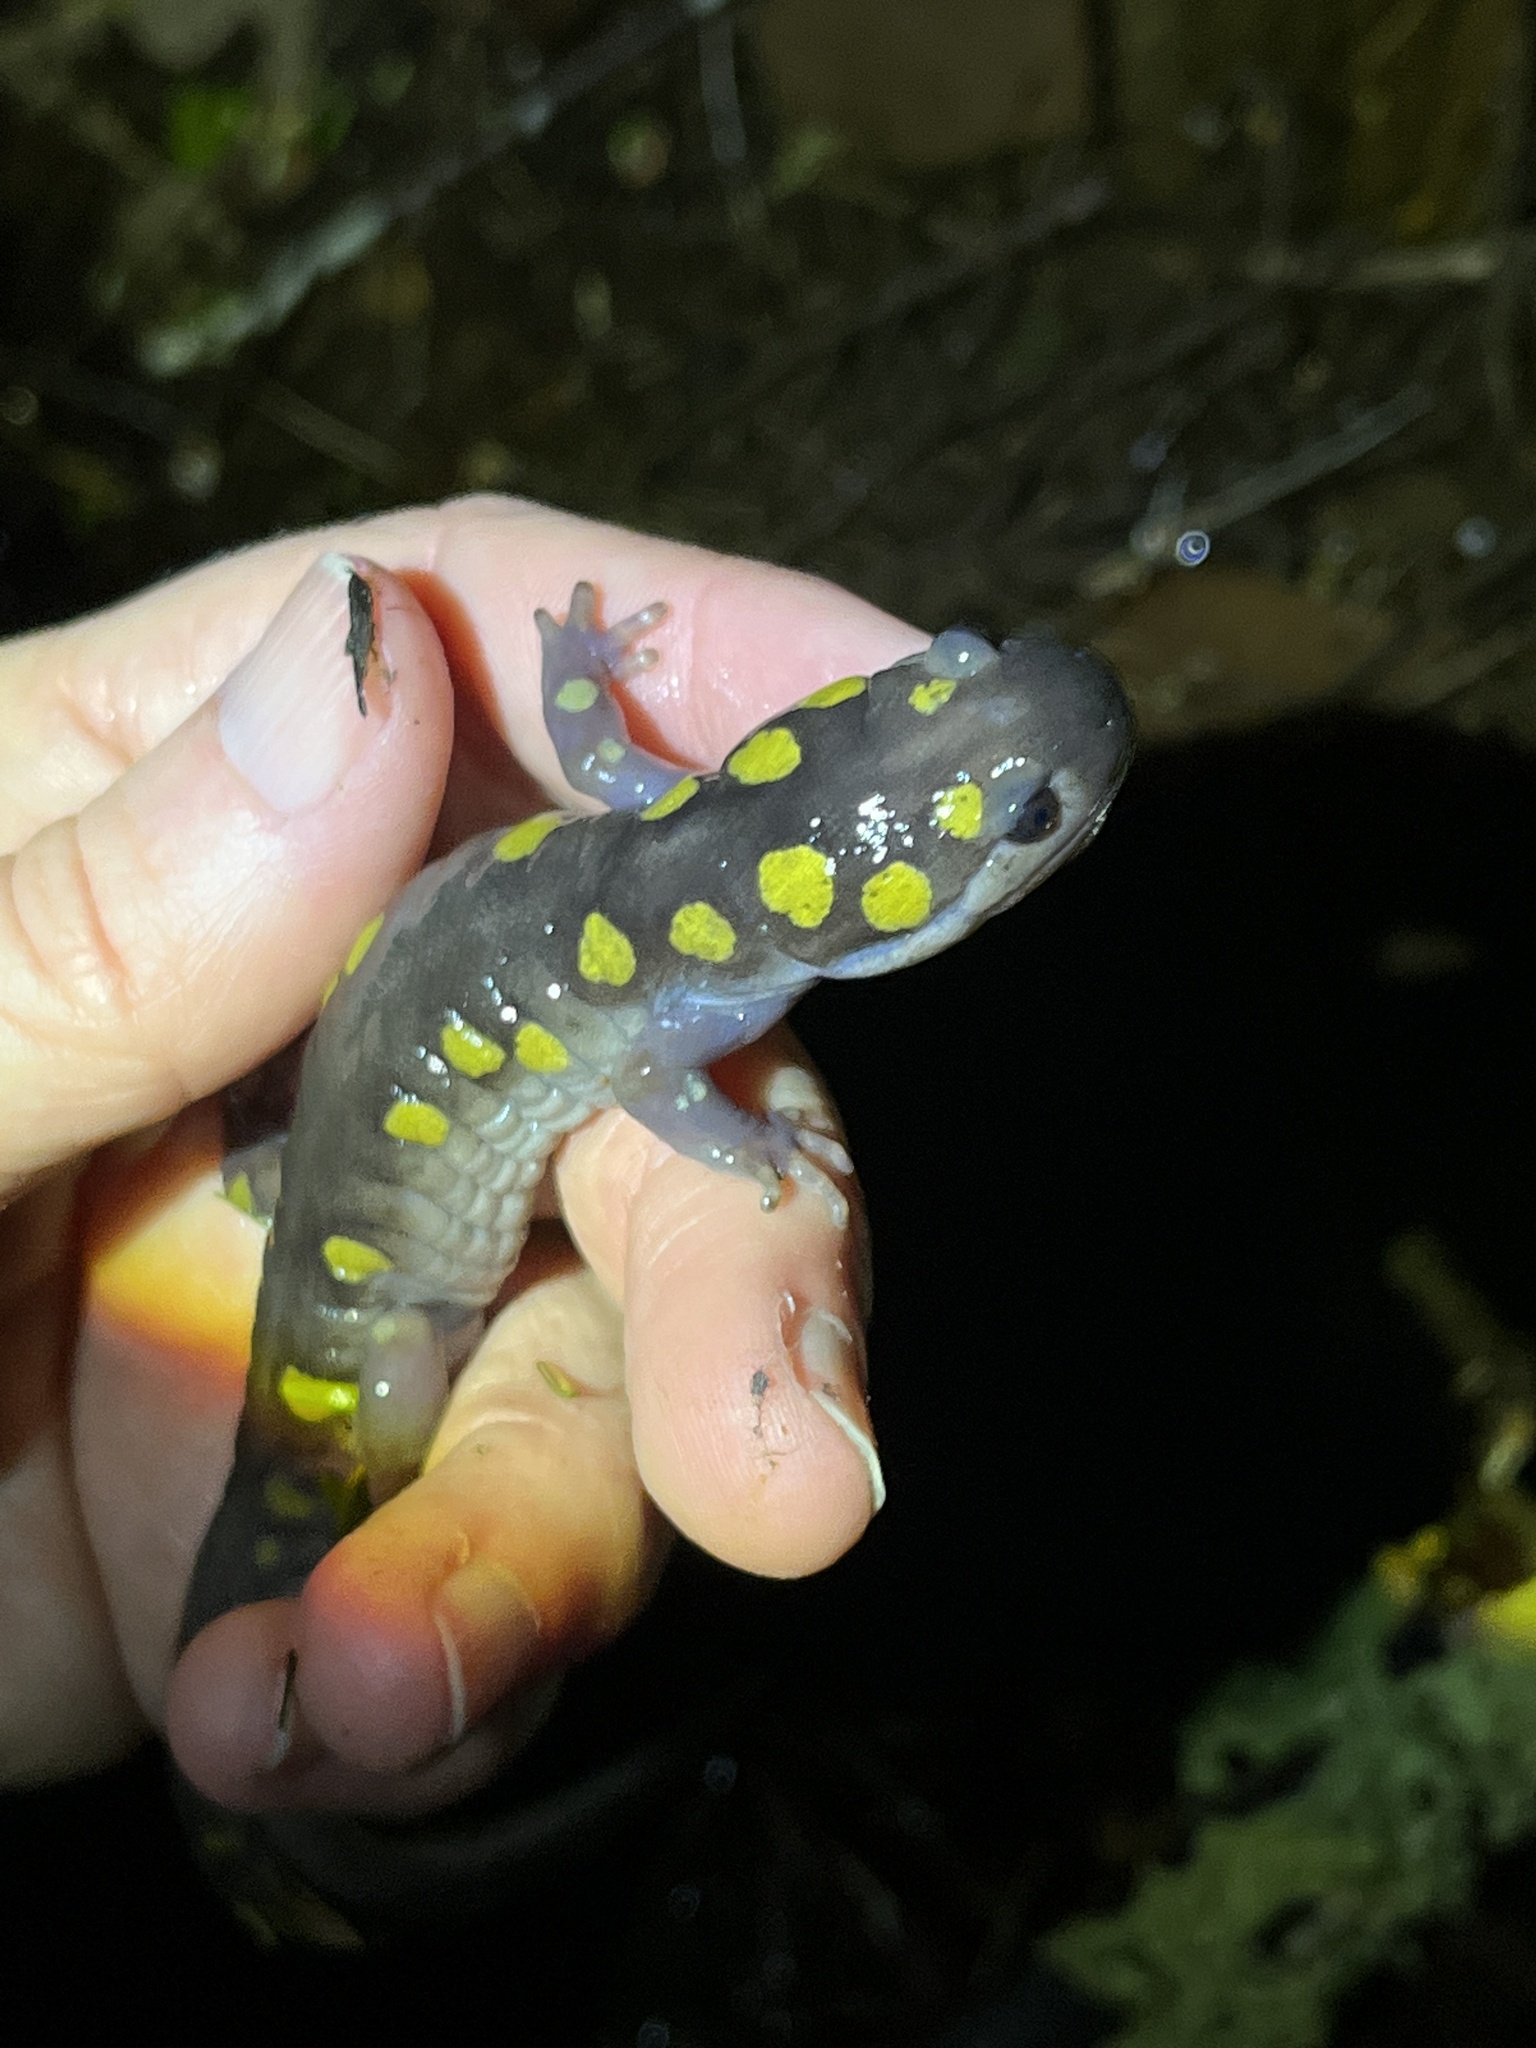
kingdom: Animalia
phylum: Chordata
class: Amphibia
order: Caudata
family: Ambystomatidae
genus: Ambystoma
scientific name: Ambystoma maculatum
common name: Spotted salamander
